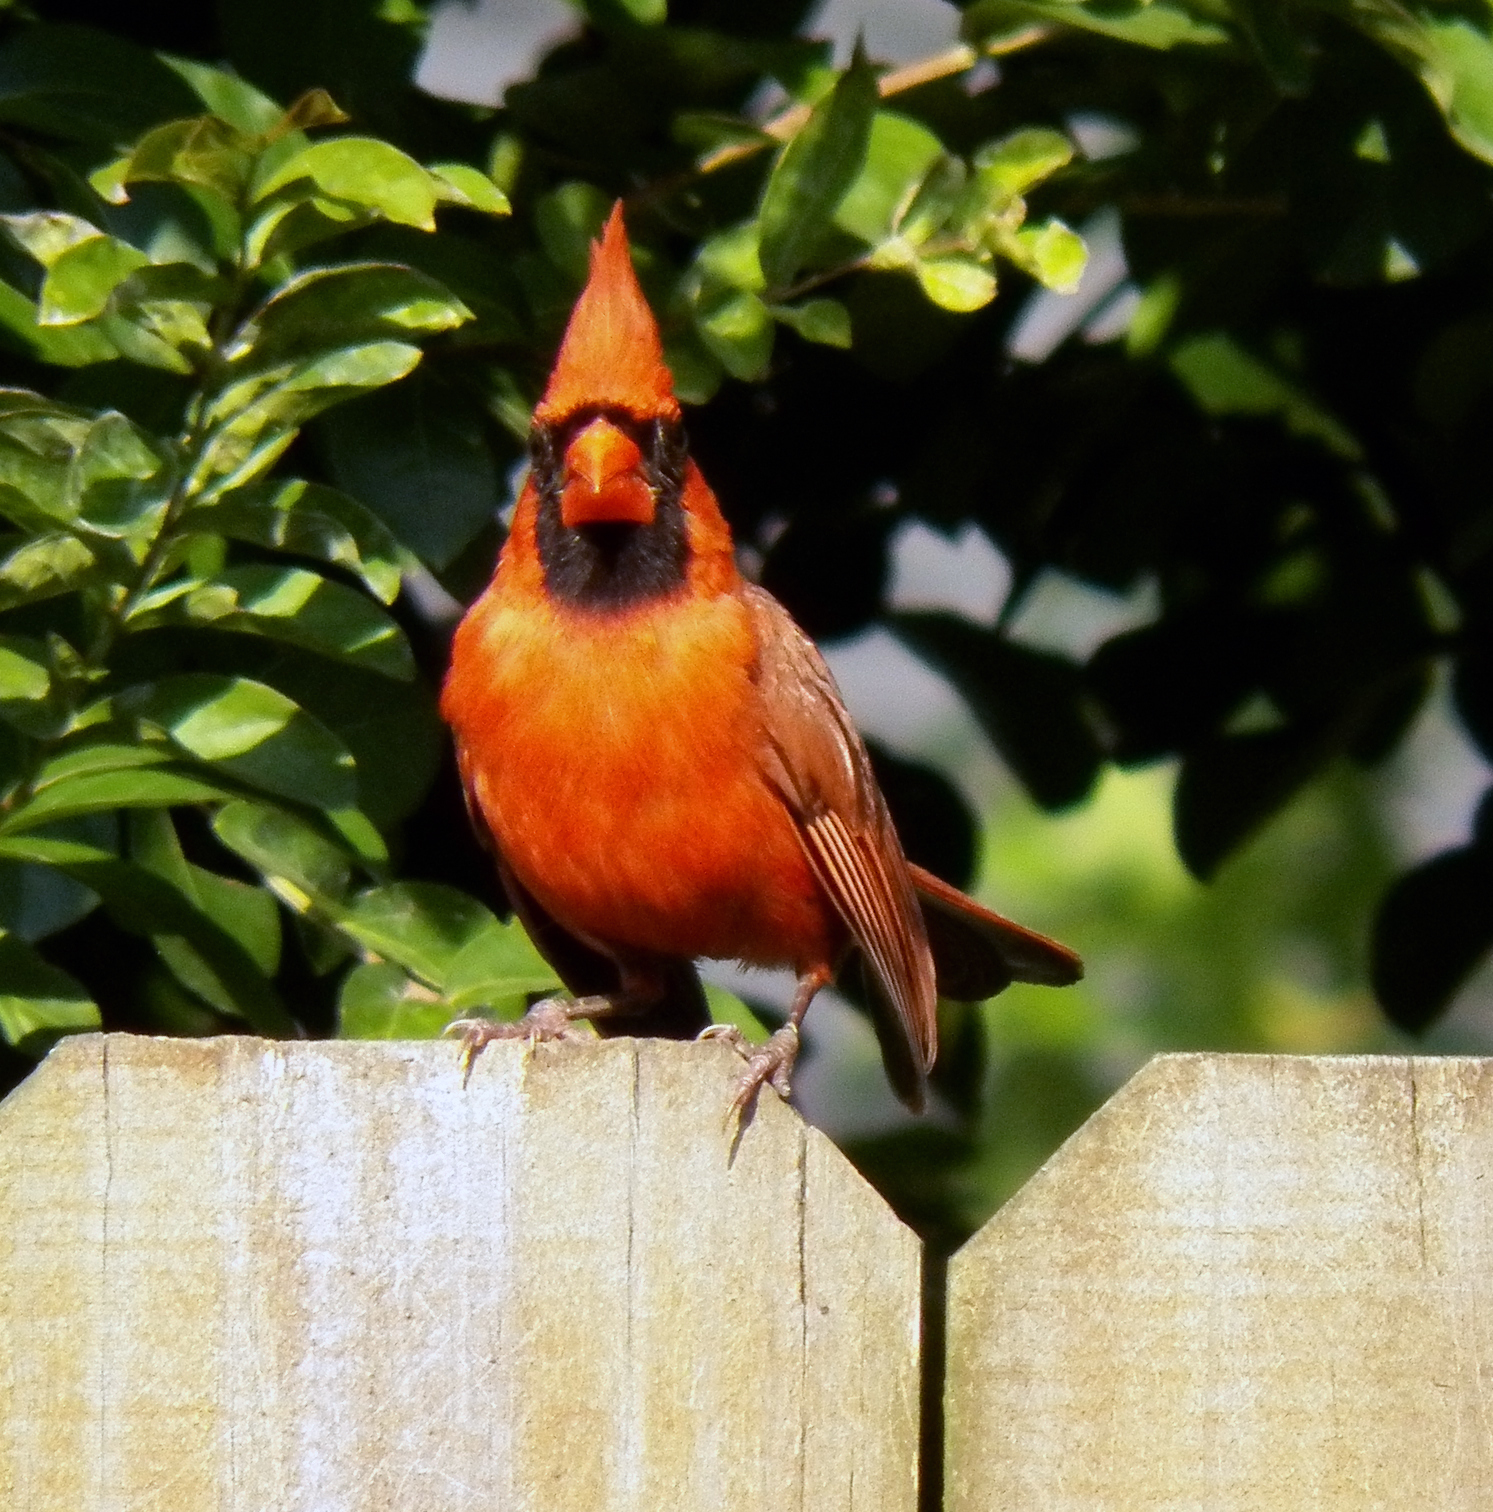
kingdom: Animalia
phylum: Chordata
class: Aves
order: Passeriformes
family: Cardinalidae
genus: Cardinalis
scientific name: Cardinalis cardinalis
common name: Northern cardinal
